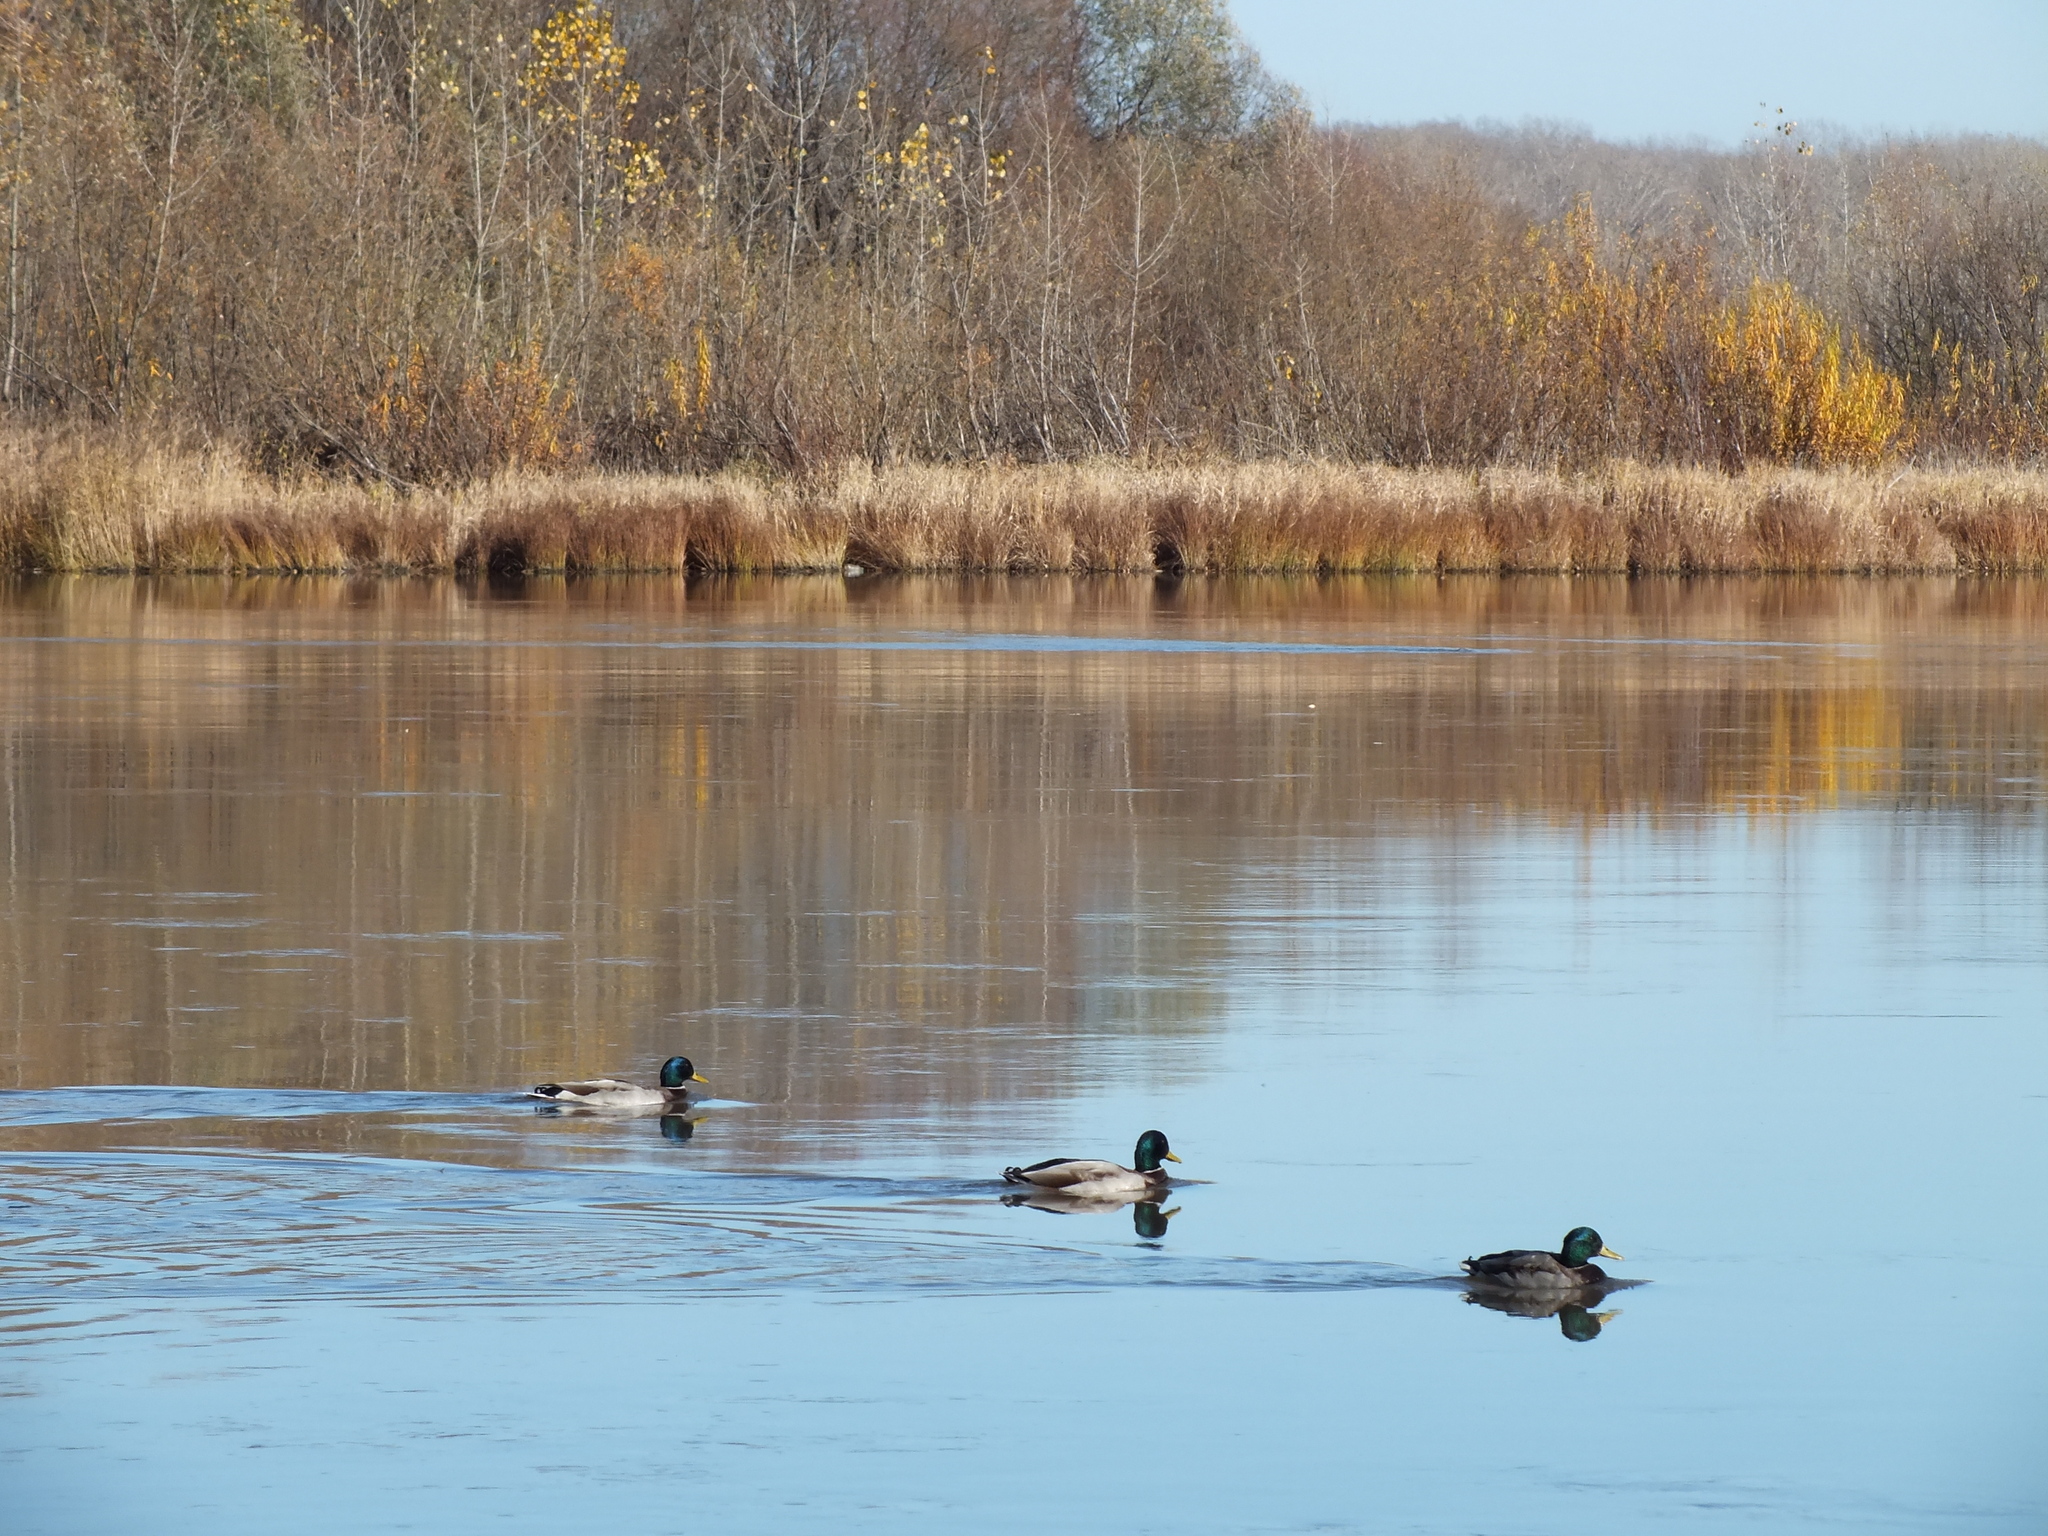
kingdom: Animalia
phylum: Chordata
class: Aves
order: Anseriformes
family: Anatidae
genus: Anas
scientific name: Anas platyrhynchos
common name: Mallard
